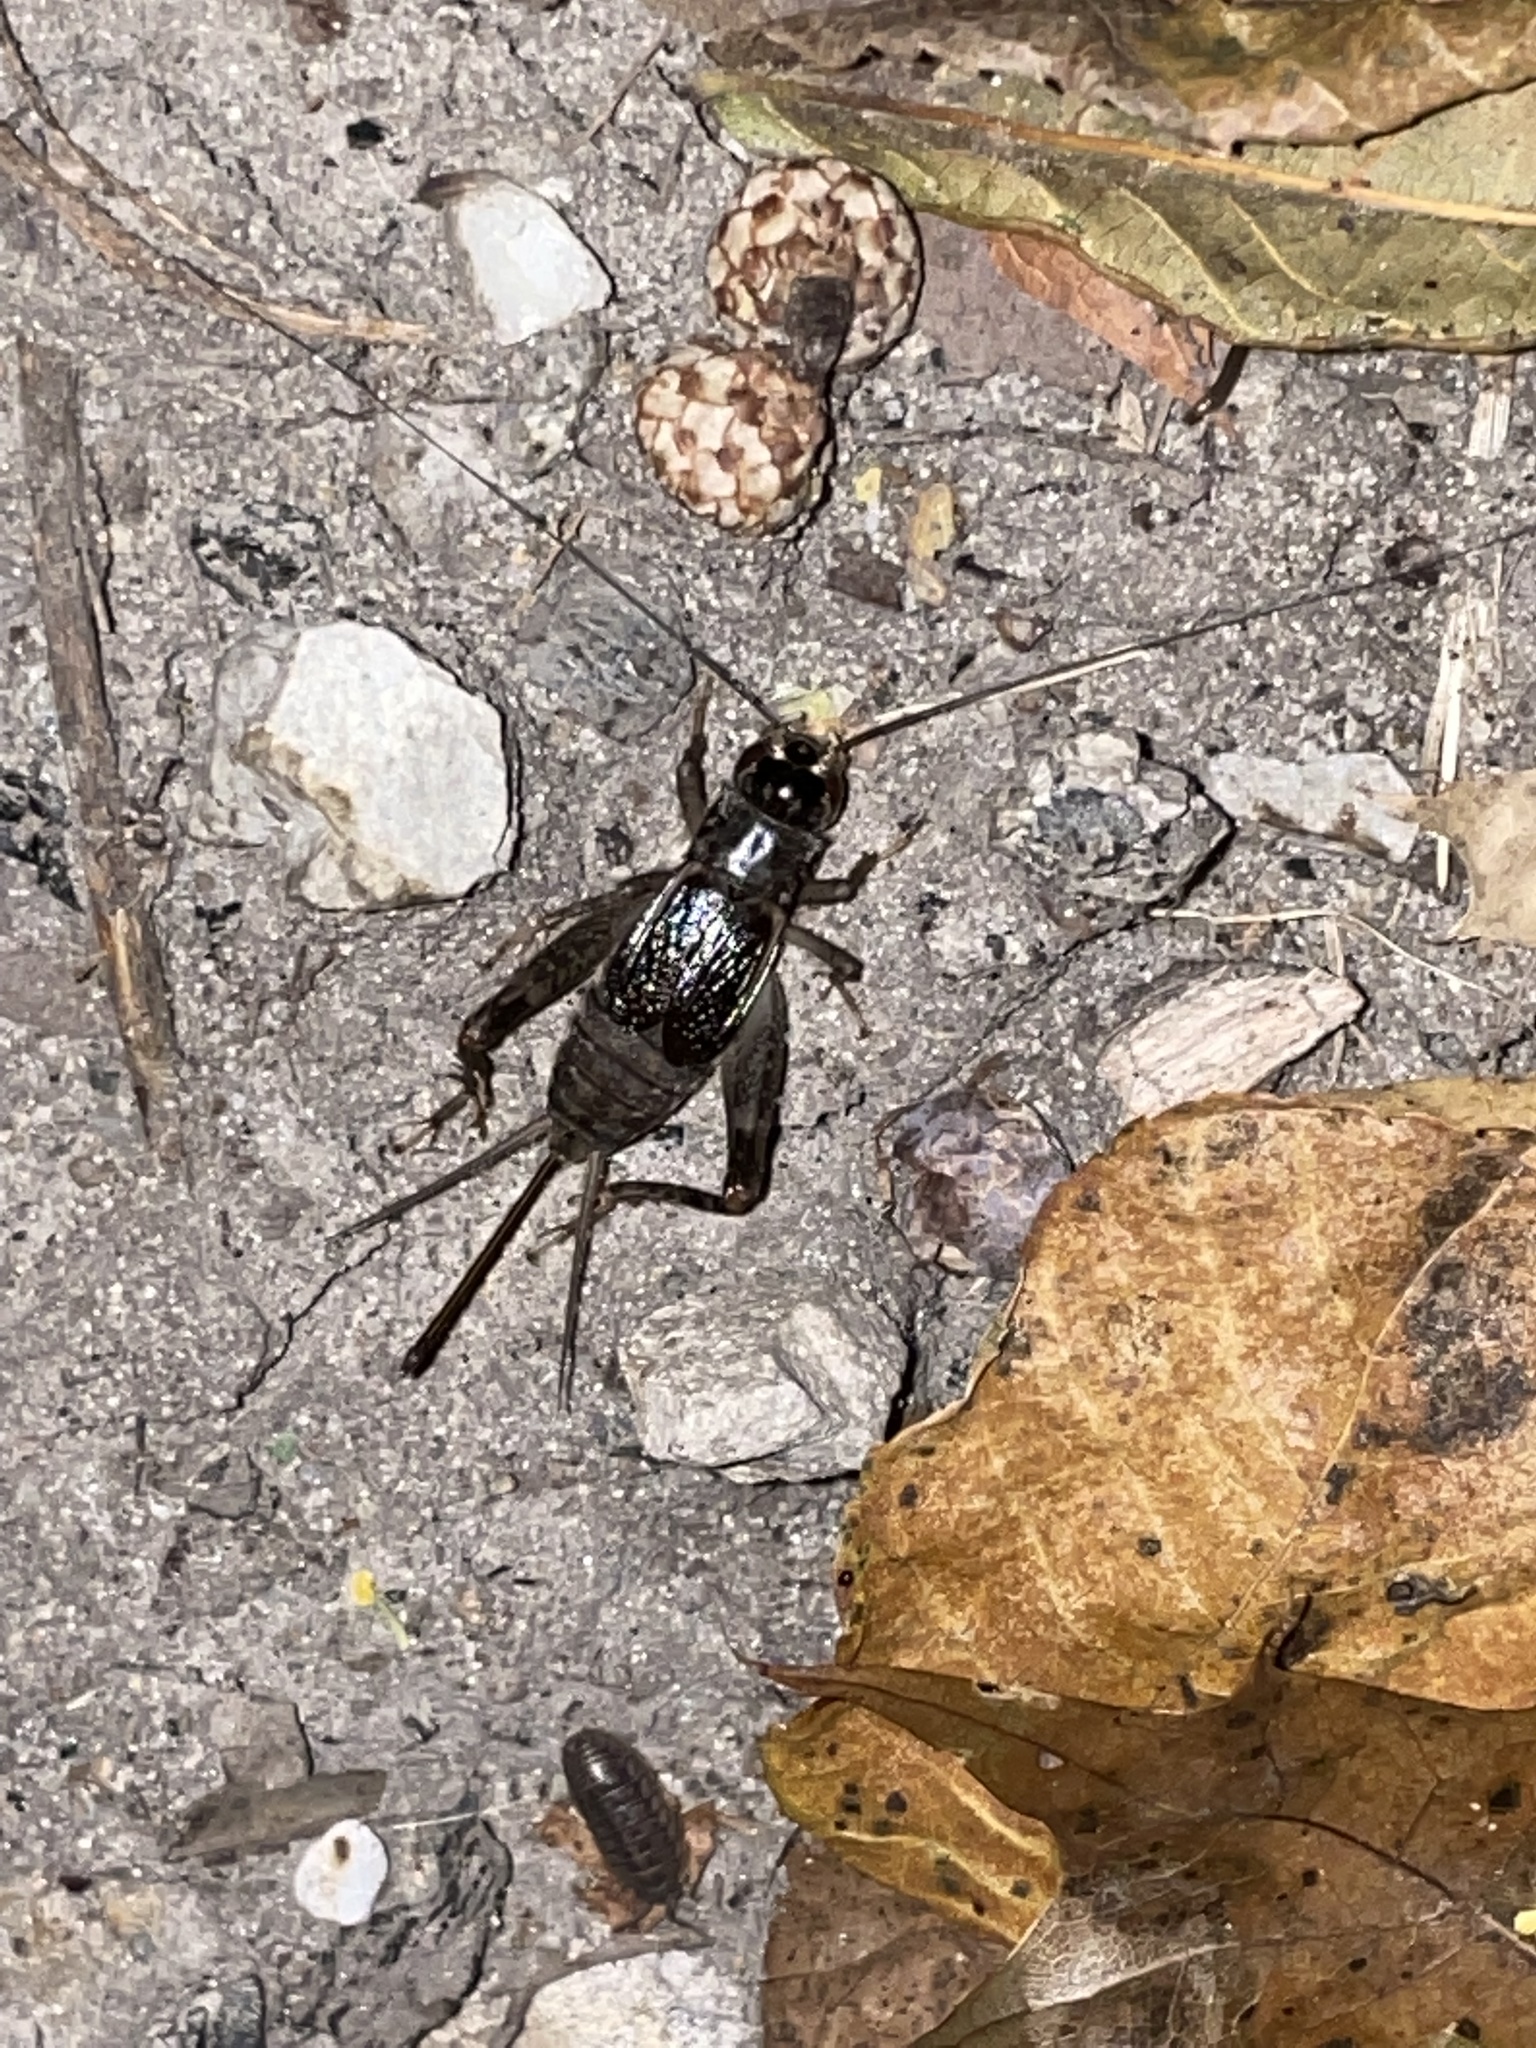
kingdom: Animalia
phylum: Arthropoda
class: Insecta
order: Orthoptera
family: Gryllidae
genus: Velarifictorus
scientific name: Velarifictorus micado
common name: Japanese burrowing cricket
